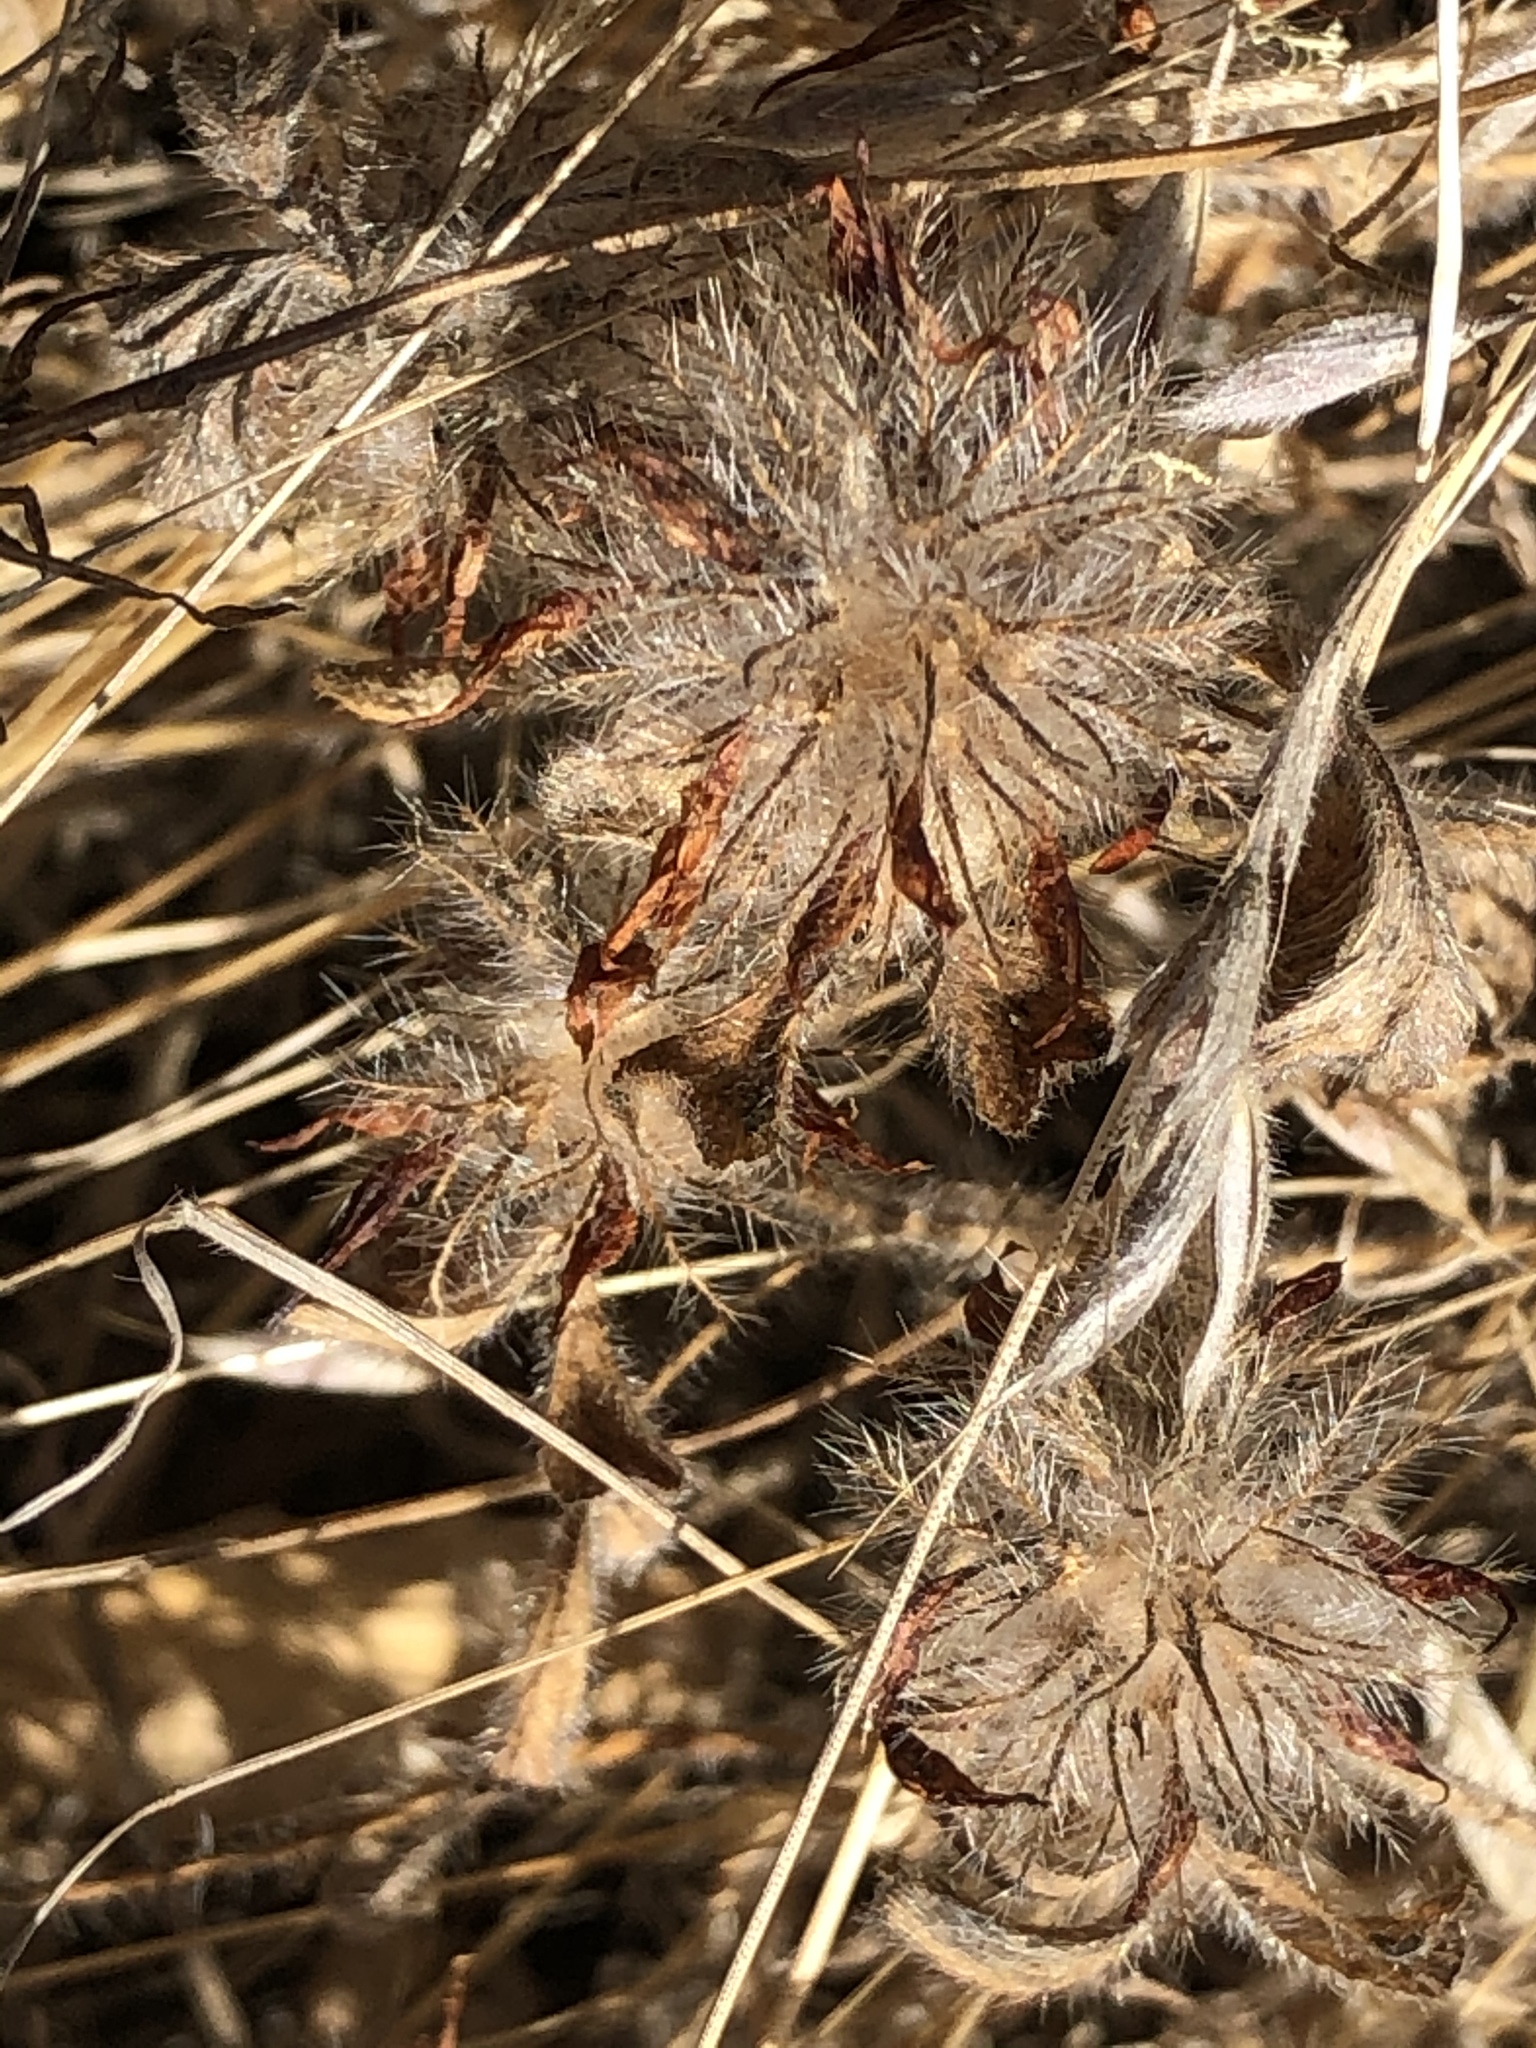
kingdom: Plantae
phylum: Tracheophyta
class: Magnoliopsida
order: Fabales
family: Fabaceae
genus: Trifolium
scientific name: Trifolium hirtum
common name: Rose clover
